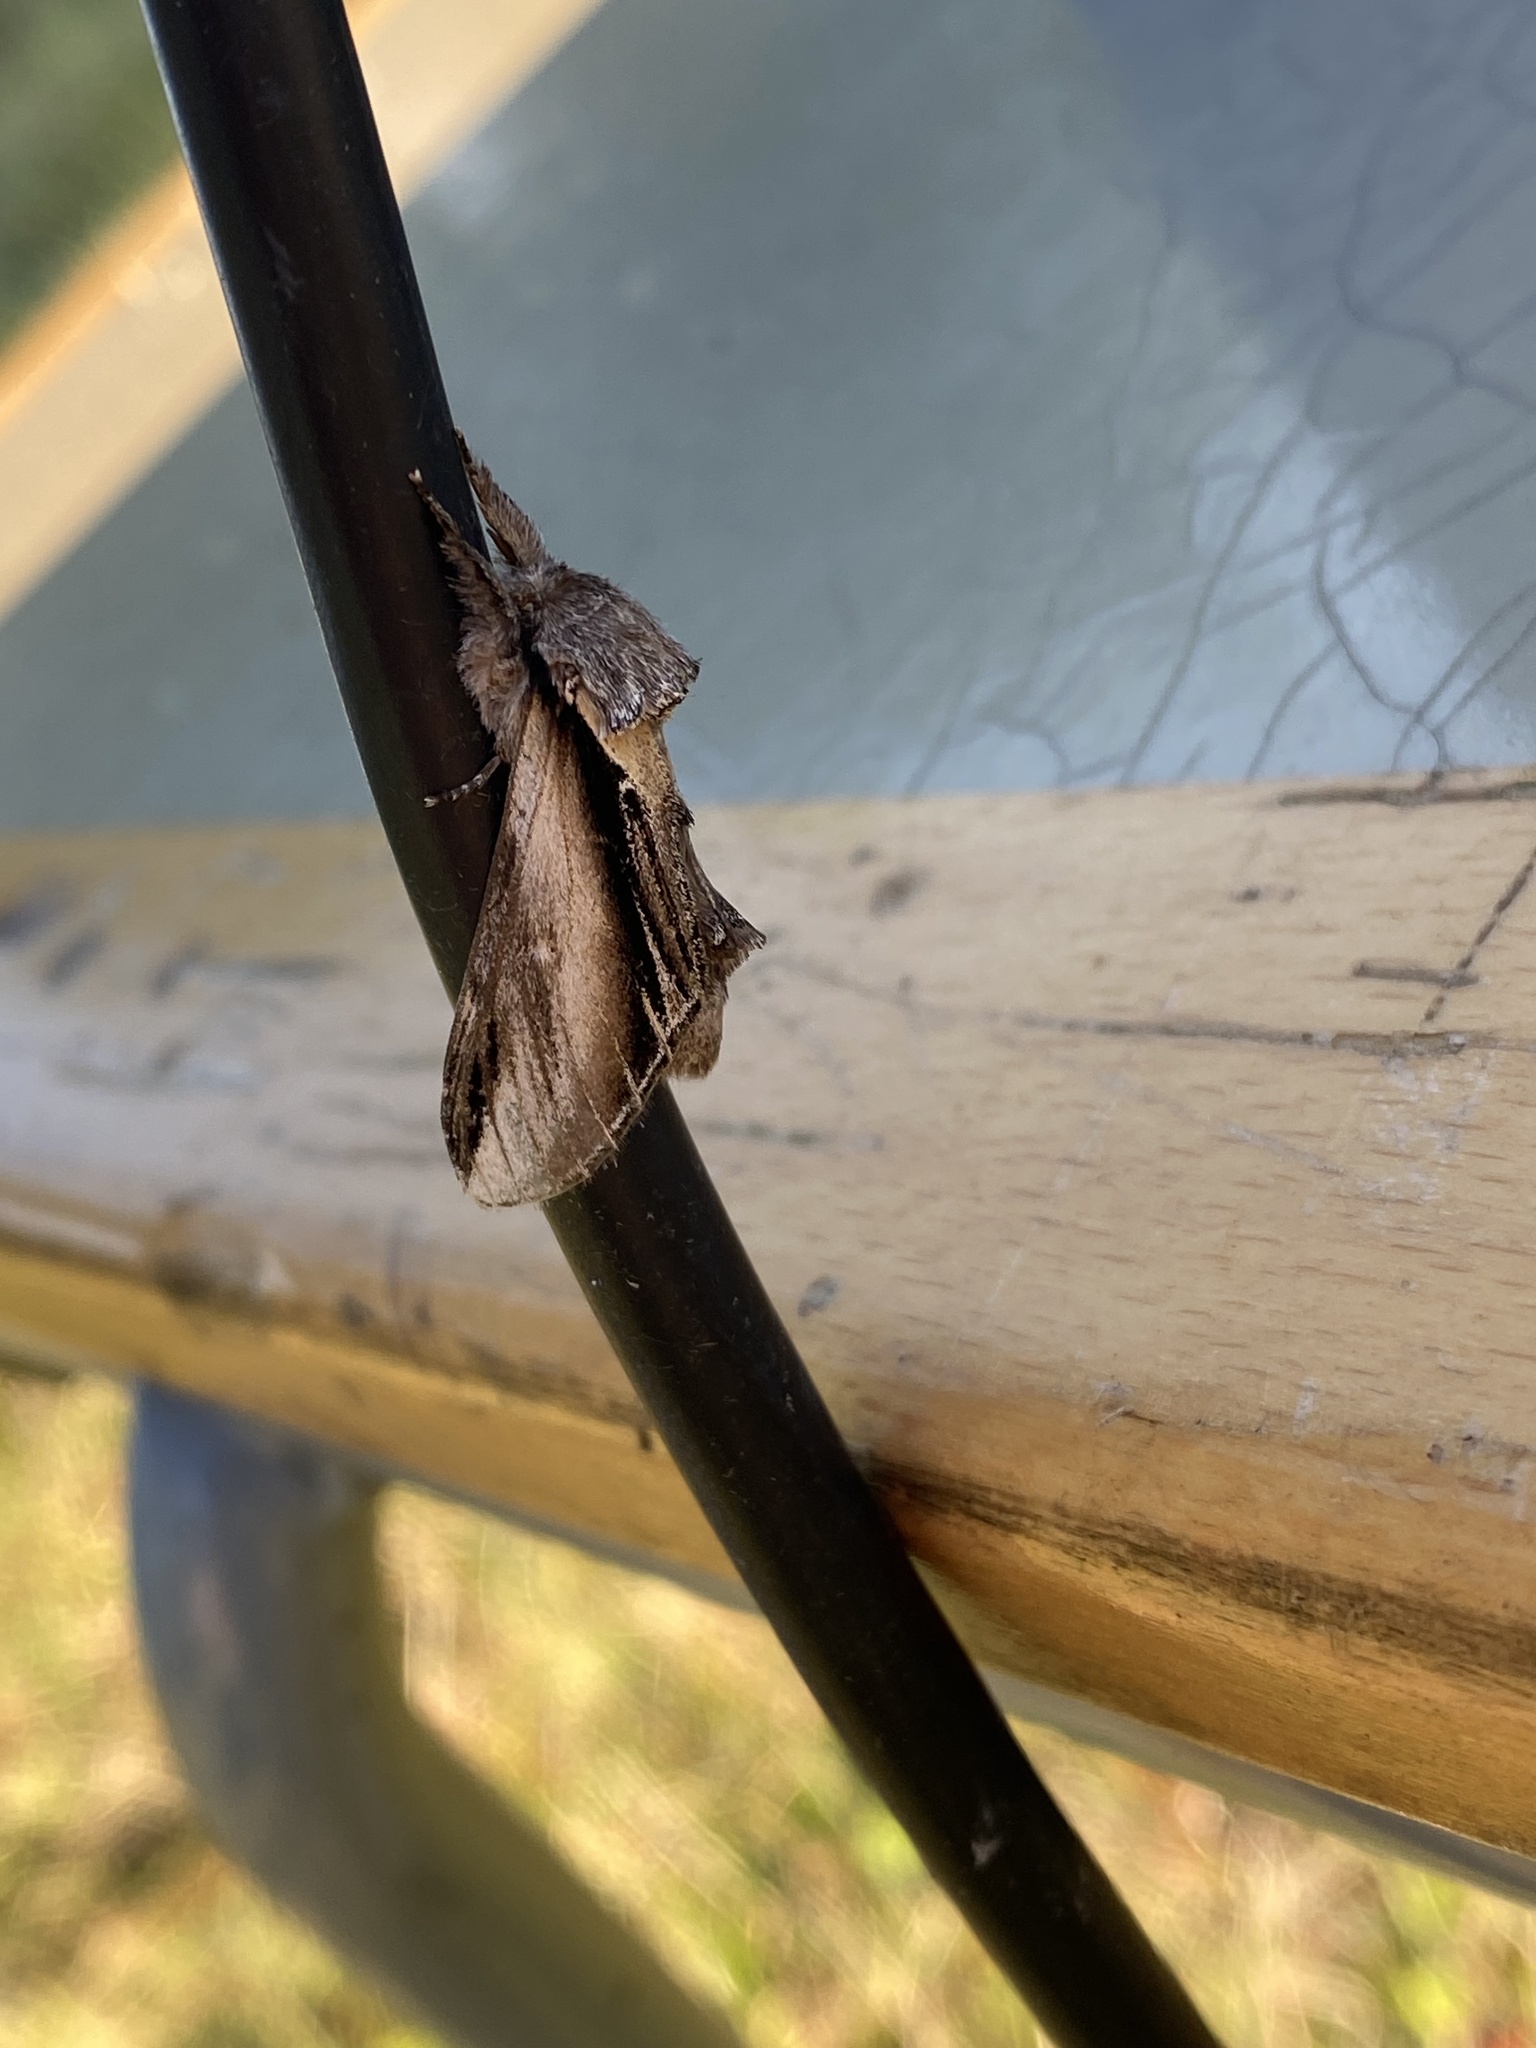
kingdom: Animalia
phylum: Arthropoda
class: Insecta
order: Lepidoptera
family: Notodontidae
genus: Pheosia
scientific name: Pheosia tremula
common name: Swallow prominent
